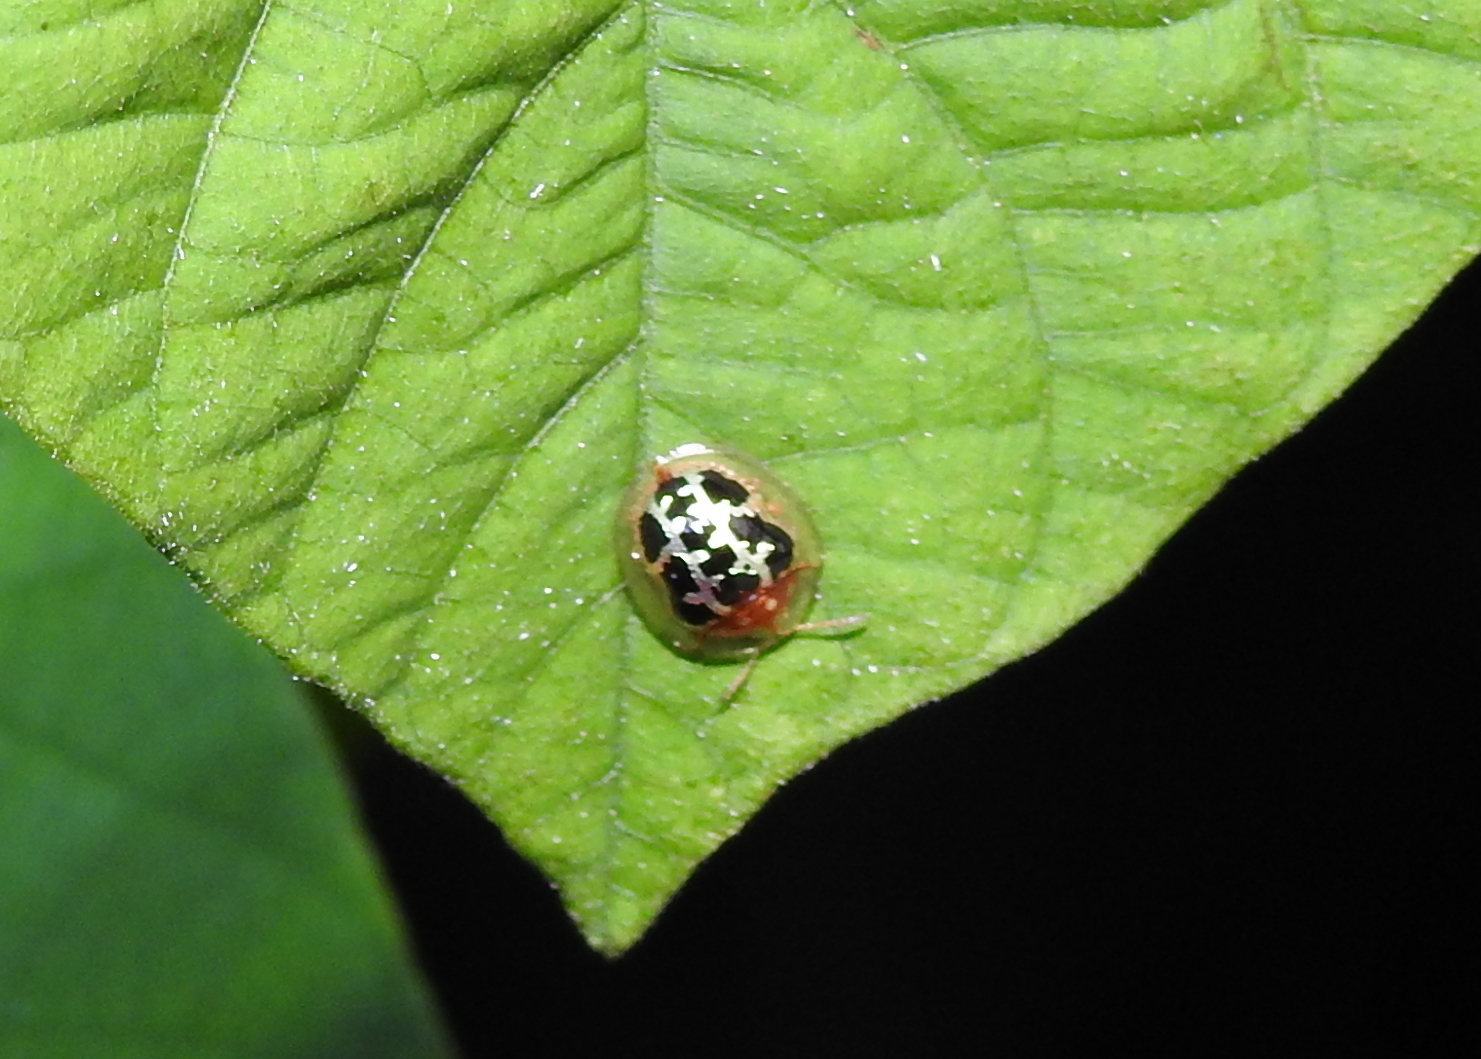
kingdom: Animalia
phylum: Arthropoda
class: Insecta
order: Coleoptera
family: Chrysomelidae
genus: Chiridopsis
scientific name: Chiridopsis scalaris
